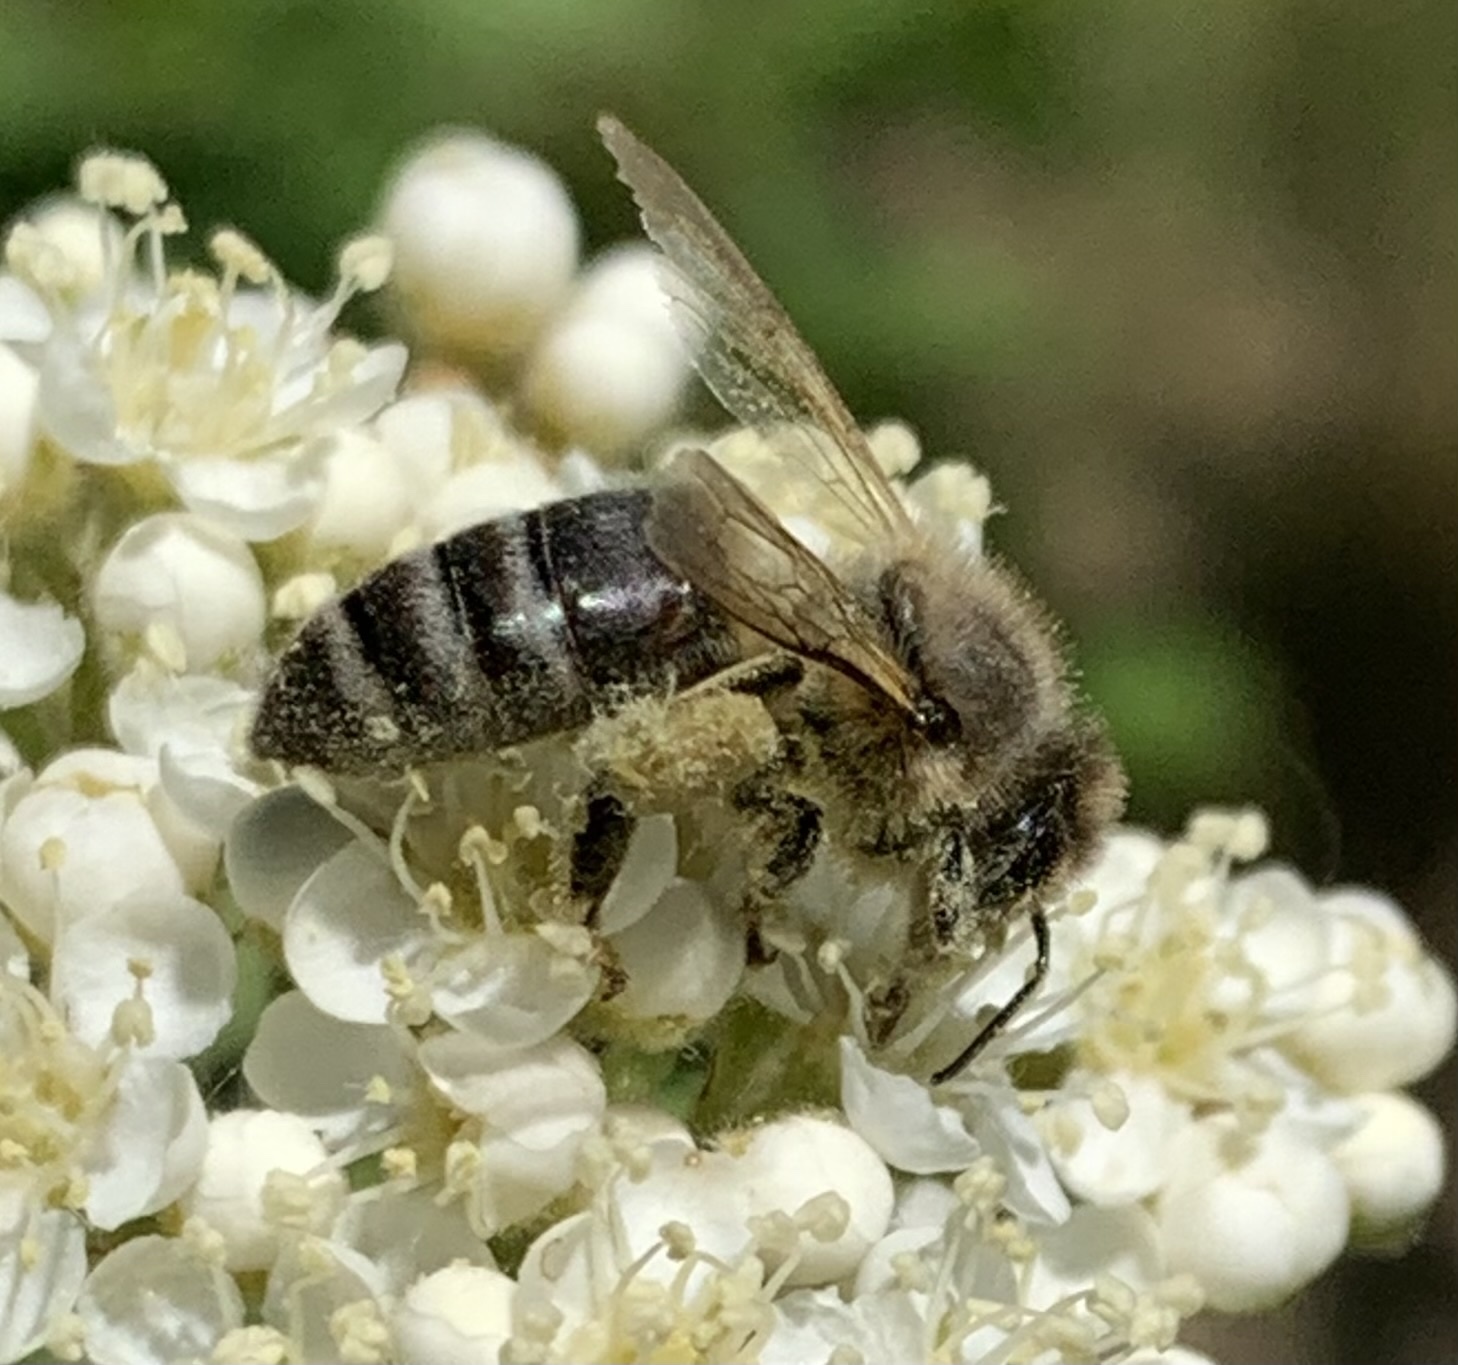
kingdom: Animalia
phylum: Arthropoda
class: Insecta
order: Hymenoptera
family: Apidae
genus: Apis
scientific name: Apis mellifera
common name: Honey bee
